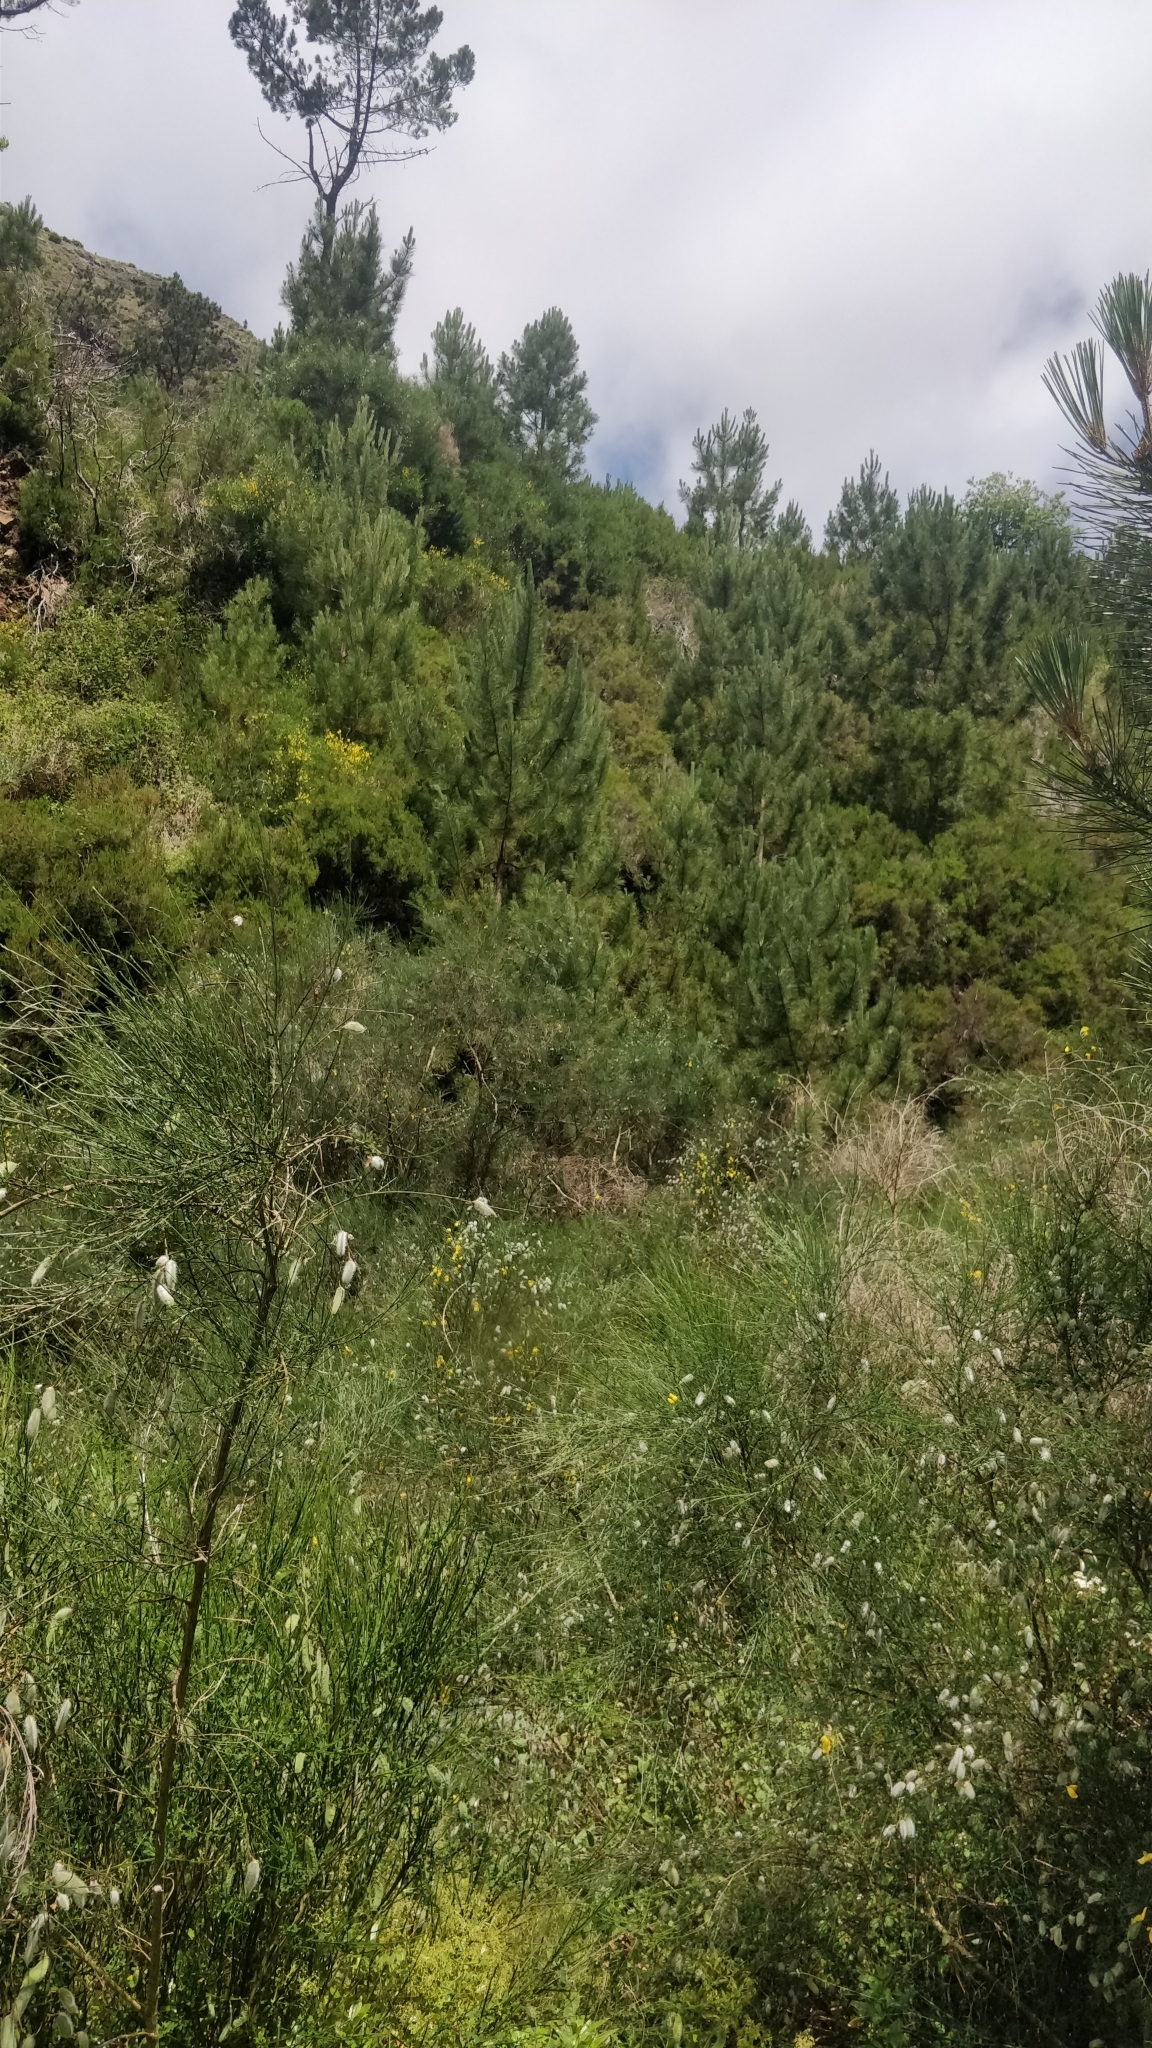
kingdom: Plantae
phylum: Tracheophyta
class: Pinopsida
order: Pinales
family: Pinaceae
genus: Pinus
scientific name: Pinus pinaster
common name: Maritime pine
